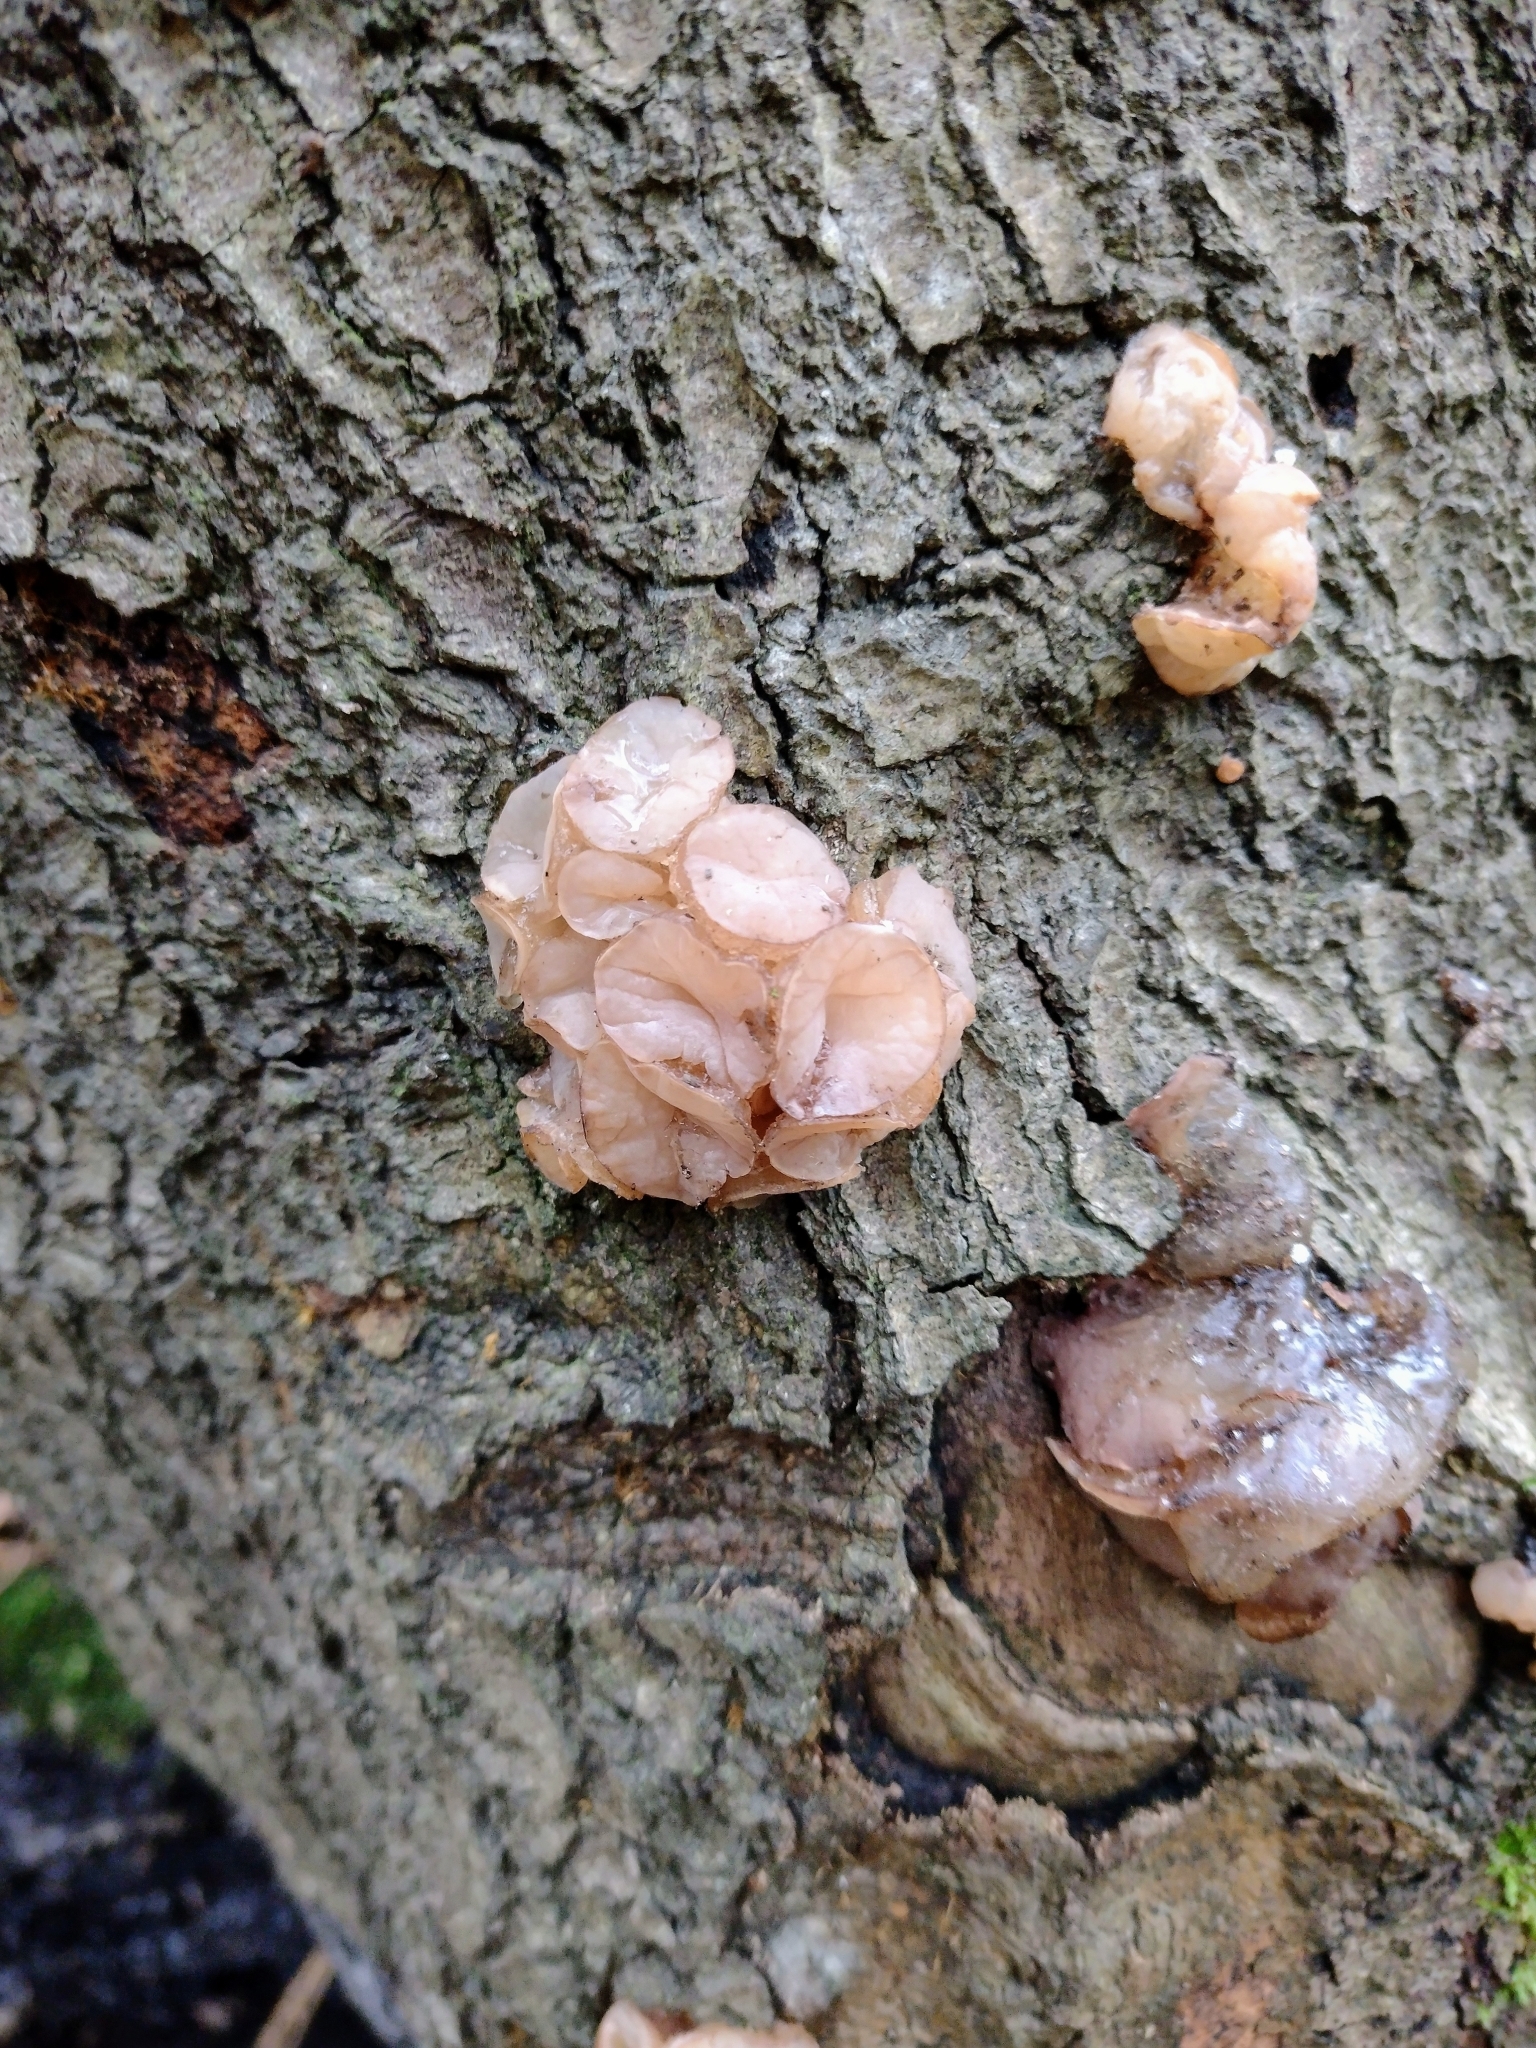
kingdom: Fungi
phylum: Ascomycota
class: Leotiomycetes
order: Helotiales
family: Gelatinodiscaceae
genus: Neobulgaria
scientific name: Neobulgaria pura
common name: Beech jelly-disc
